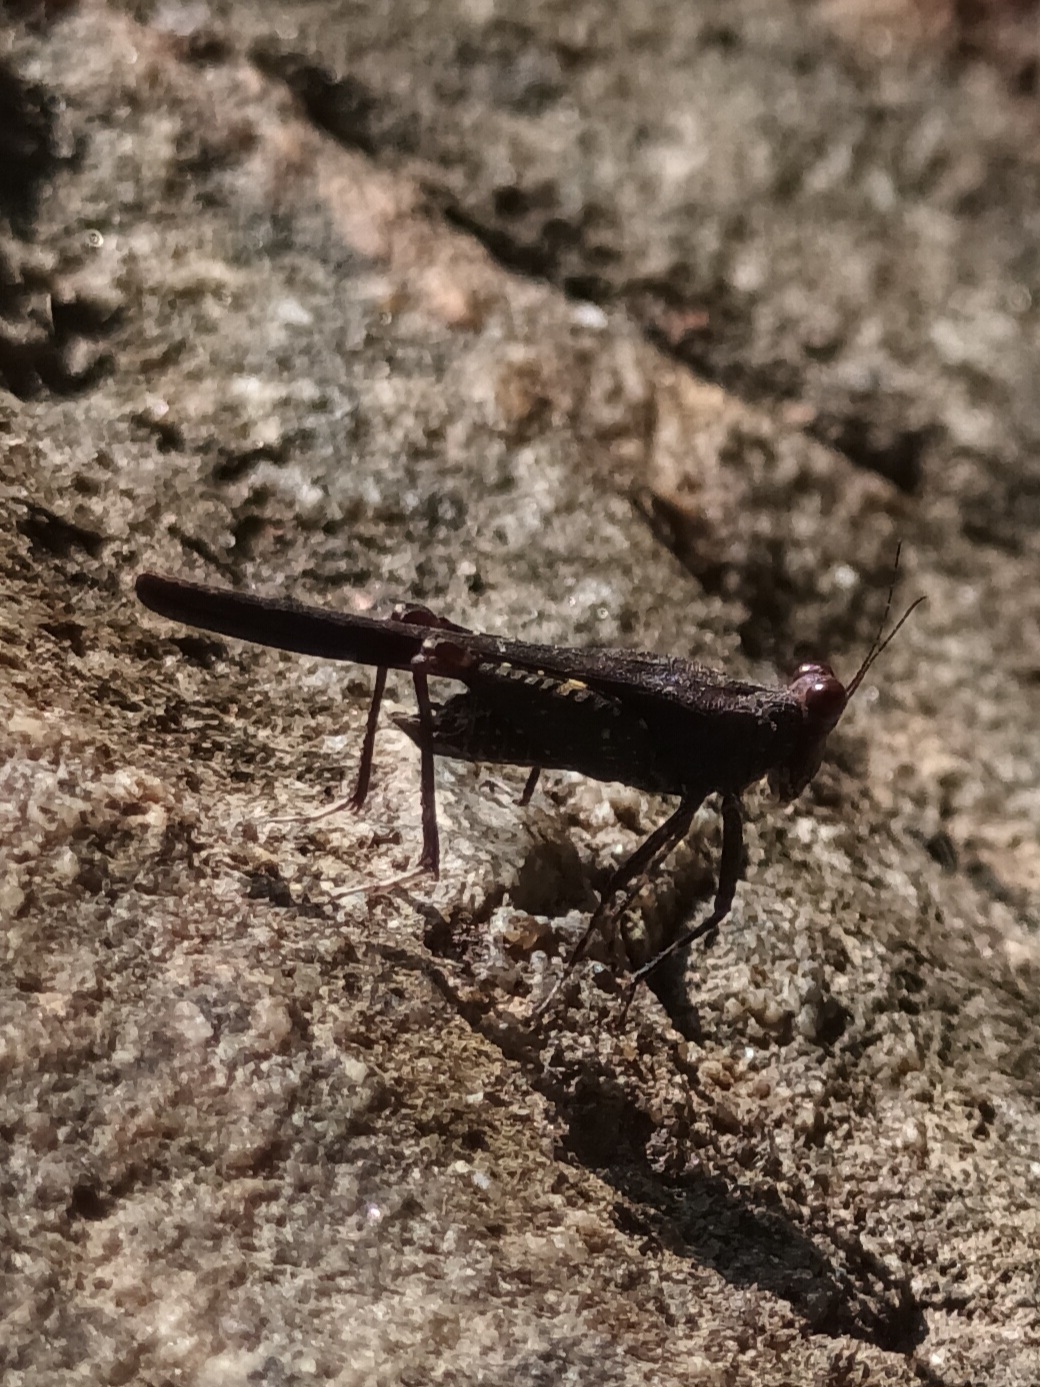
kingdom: Animalia
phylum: Arthropoda
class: Insecta
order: Orthoptera
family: Tetrigidae
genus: Eucriotettix
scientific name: Eucriotettix flavopictus
